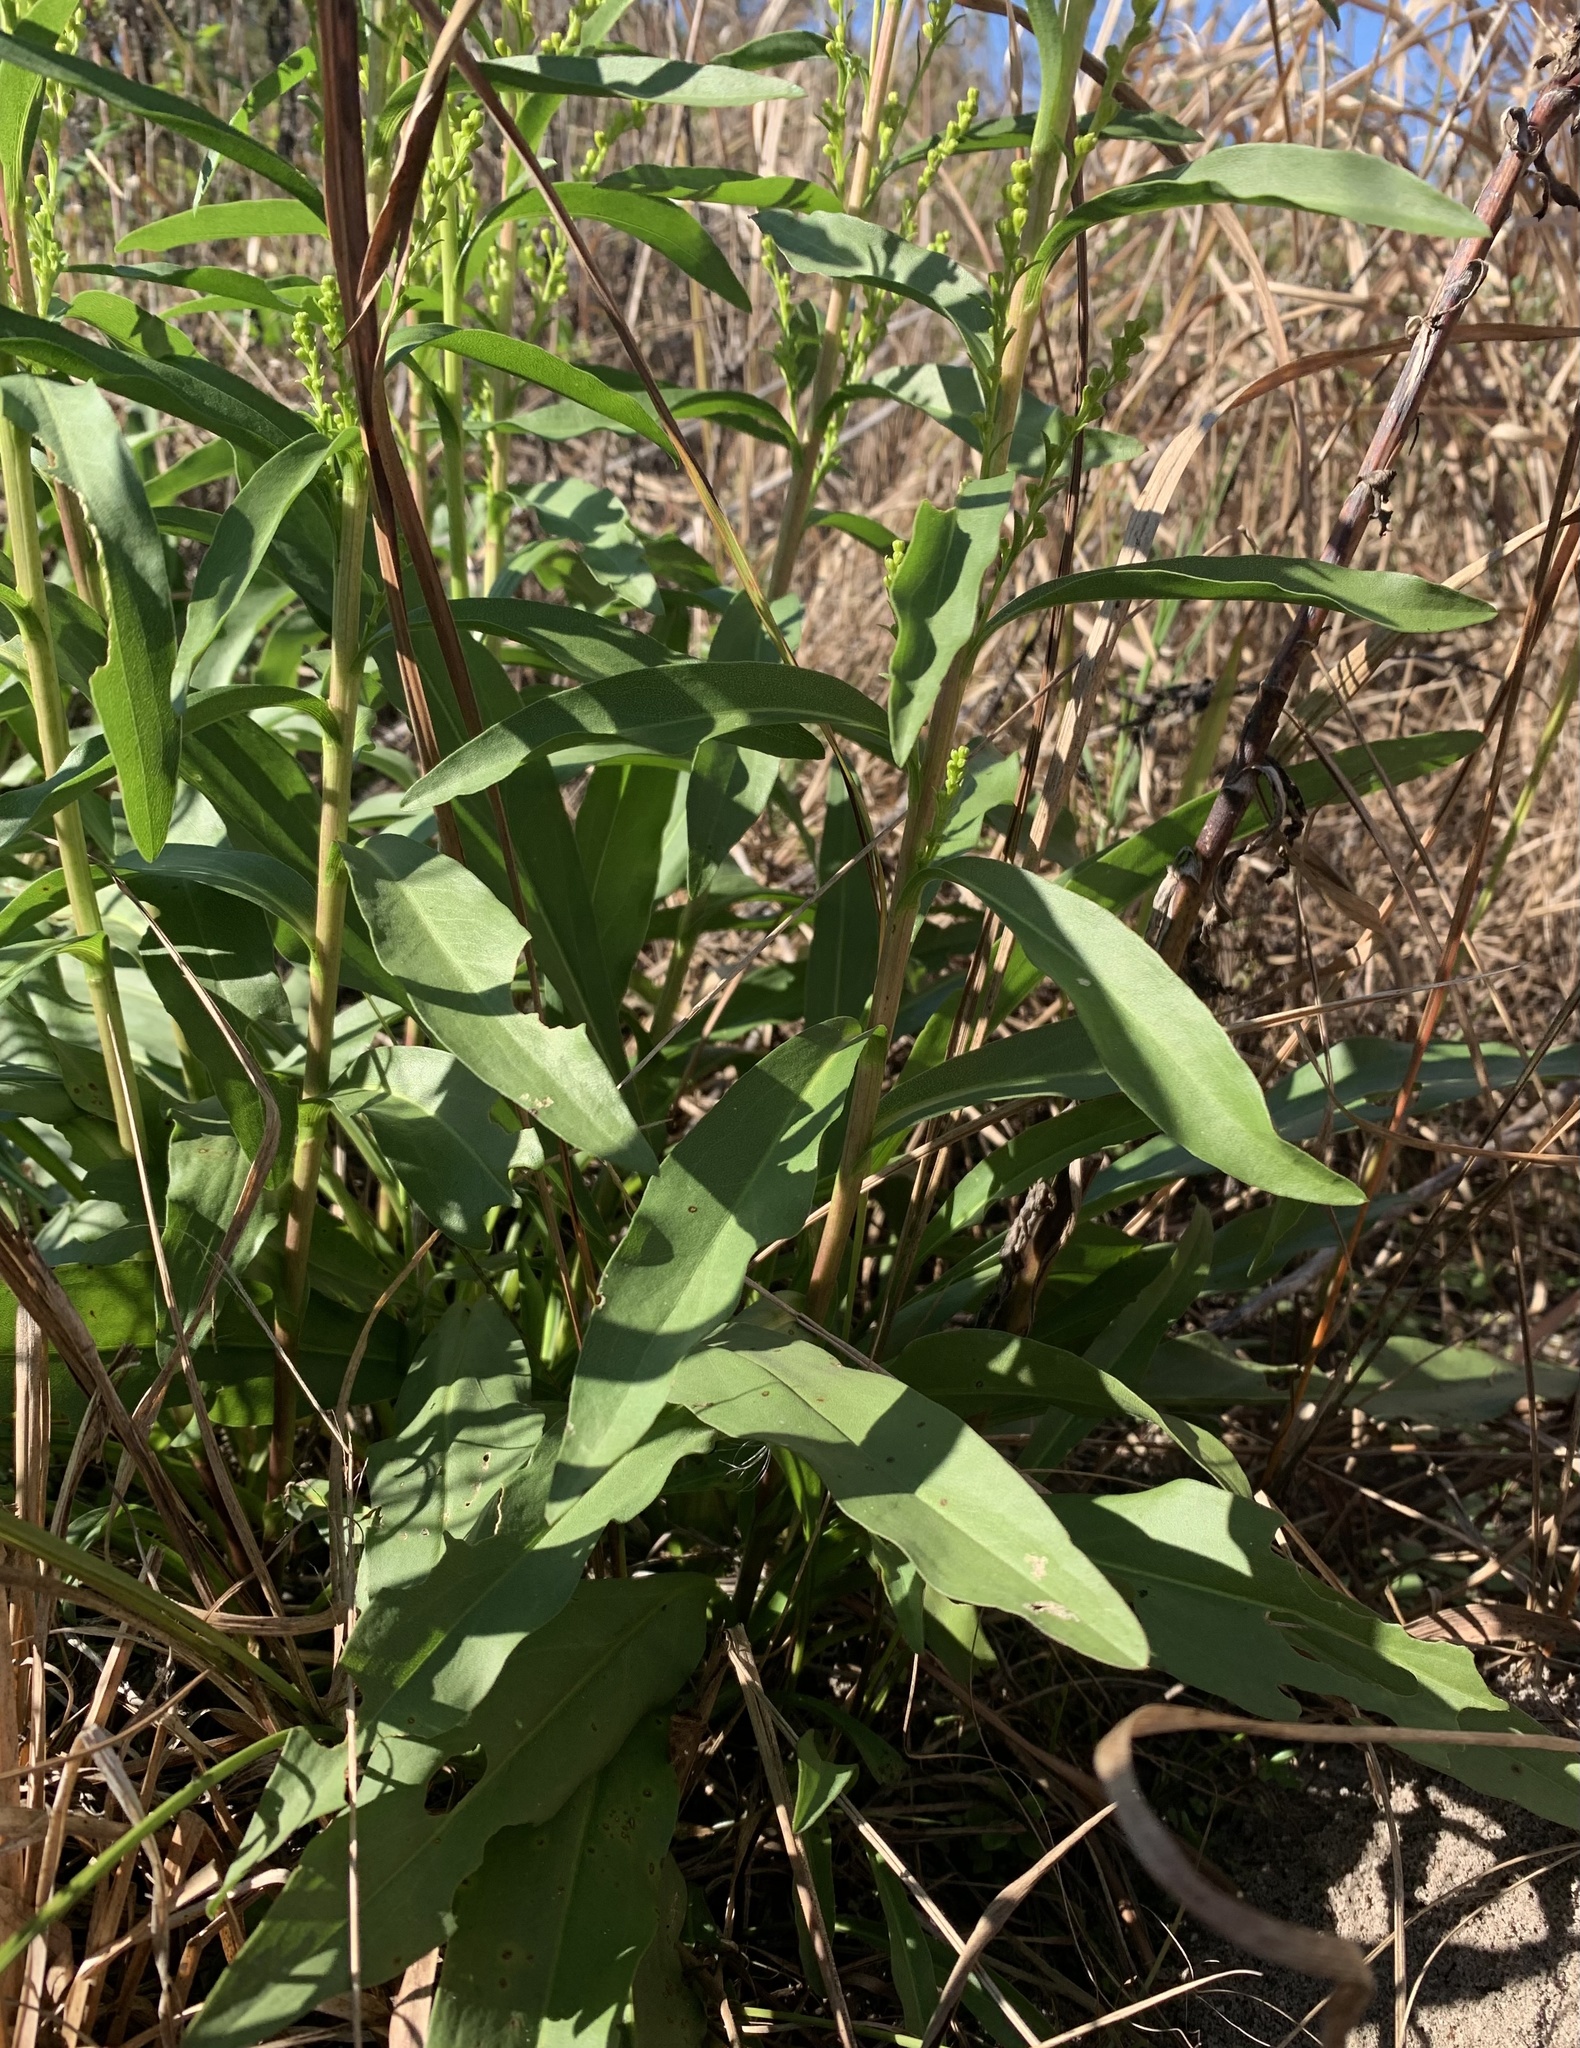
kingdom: Plantae
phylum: Tracheophyta
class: Magnoliopsida
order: Asterales
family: Asteraceae
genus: Solidago
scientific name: Solidago mexicana
